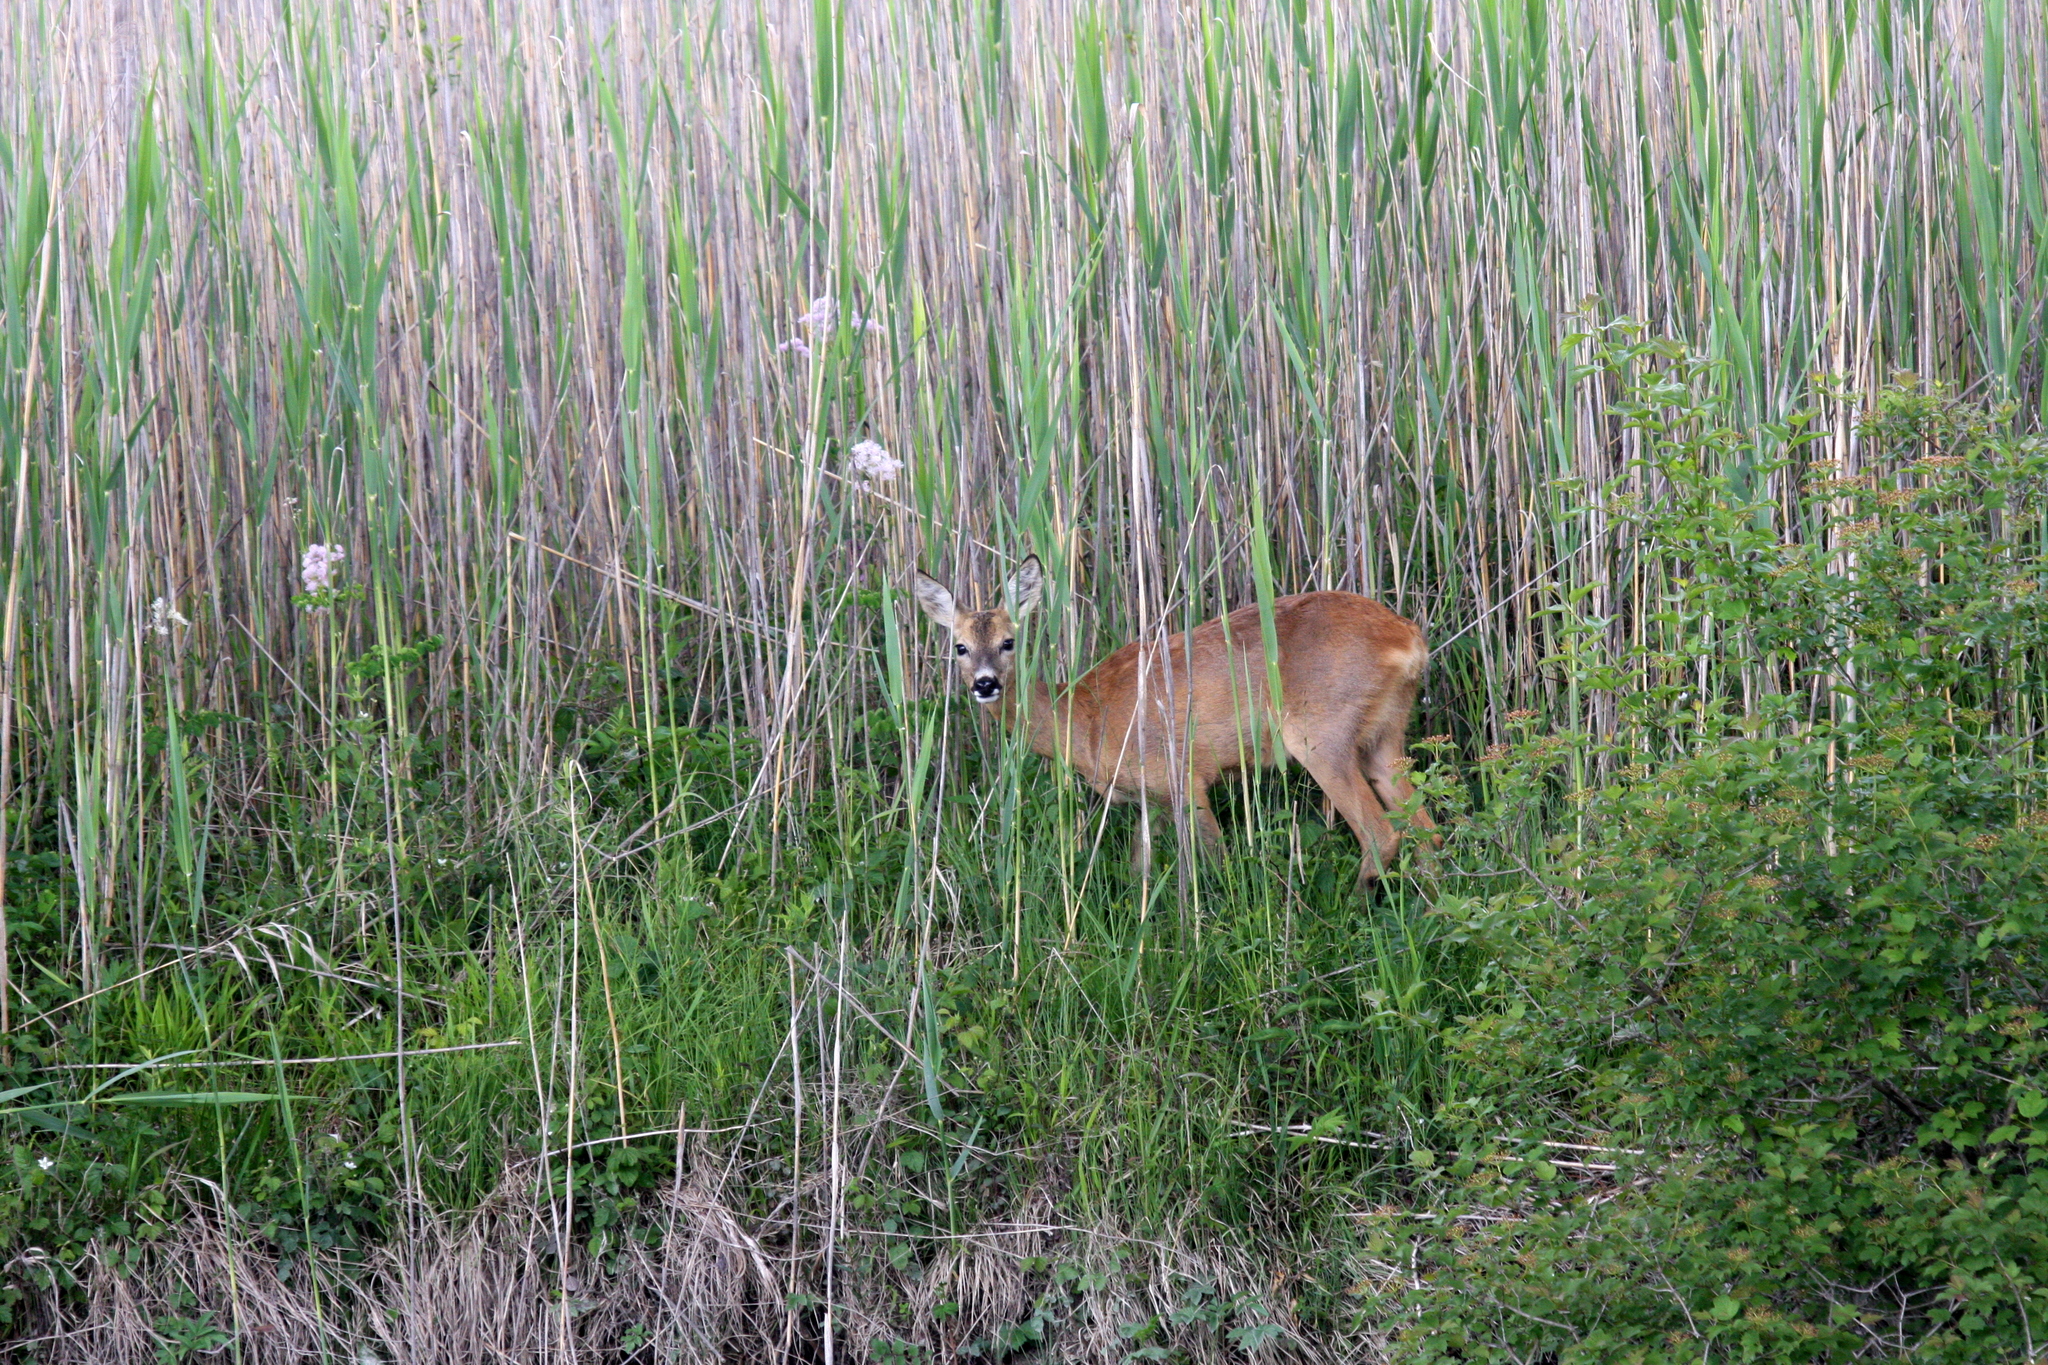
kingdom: Animalia
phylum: Chordata
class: Mammalia
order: Artiodactyla
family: Cervidae
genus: Capreolus
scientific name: Capreolus capreolus
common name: Western roe deer
